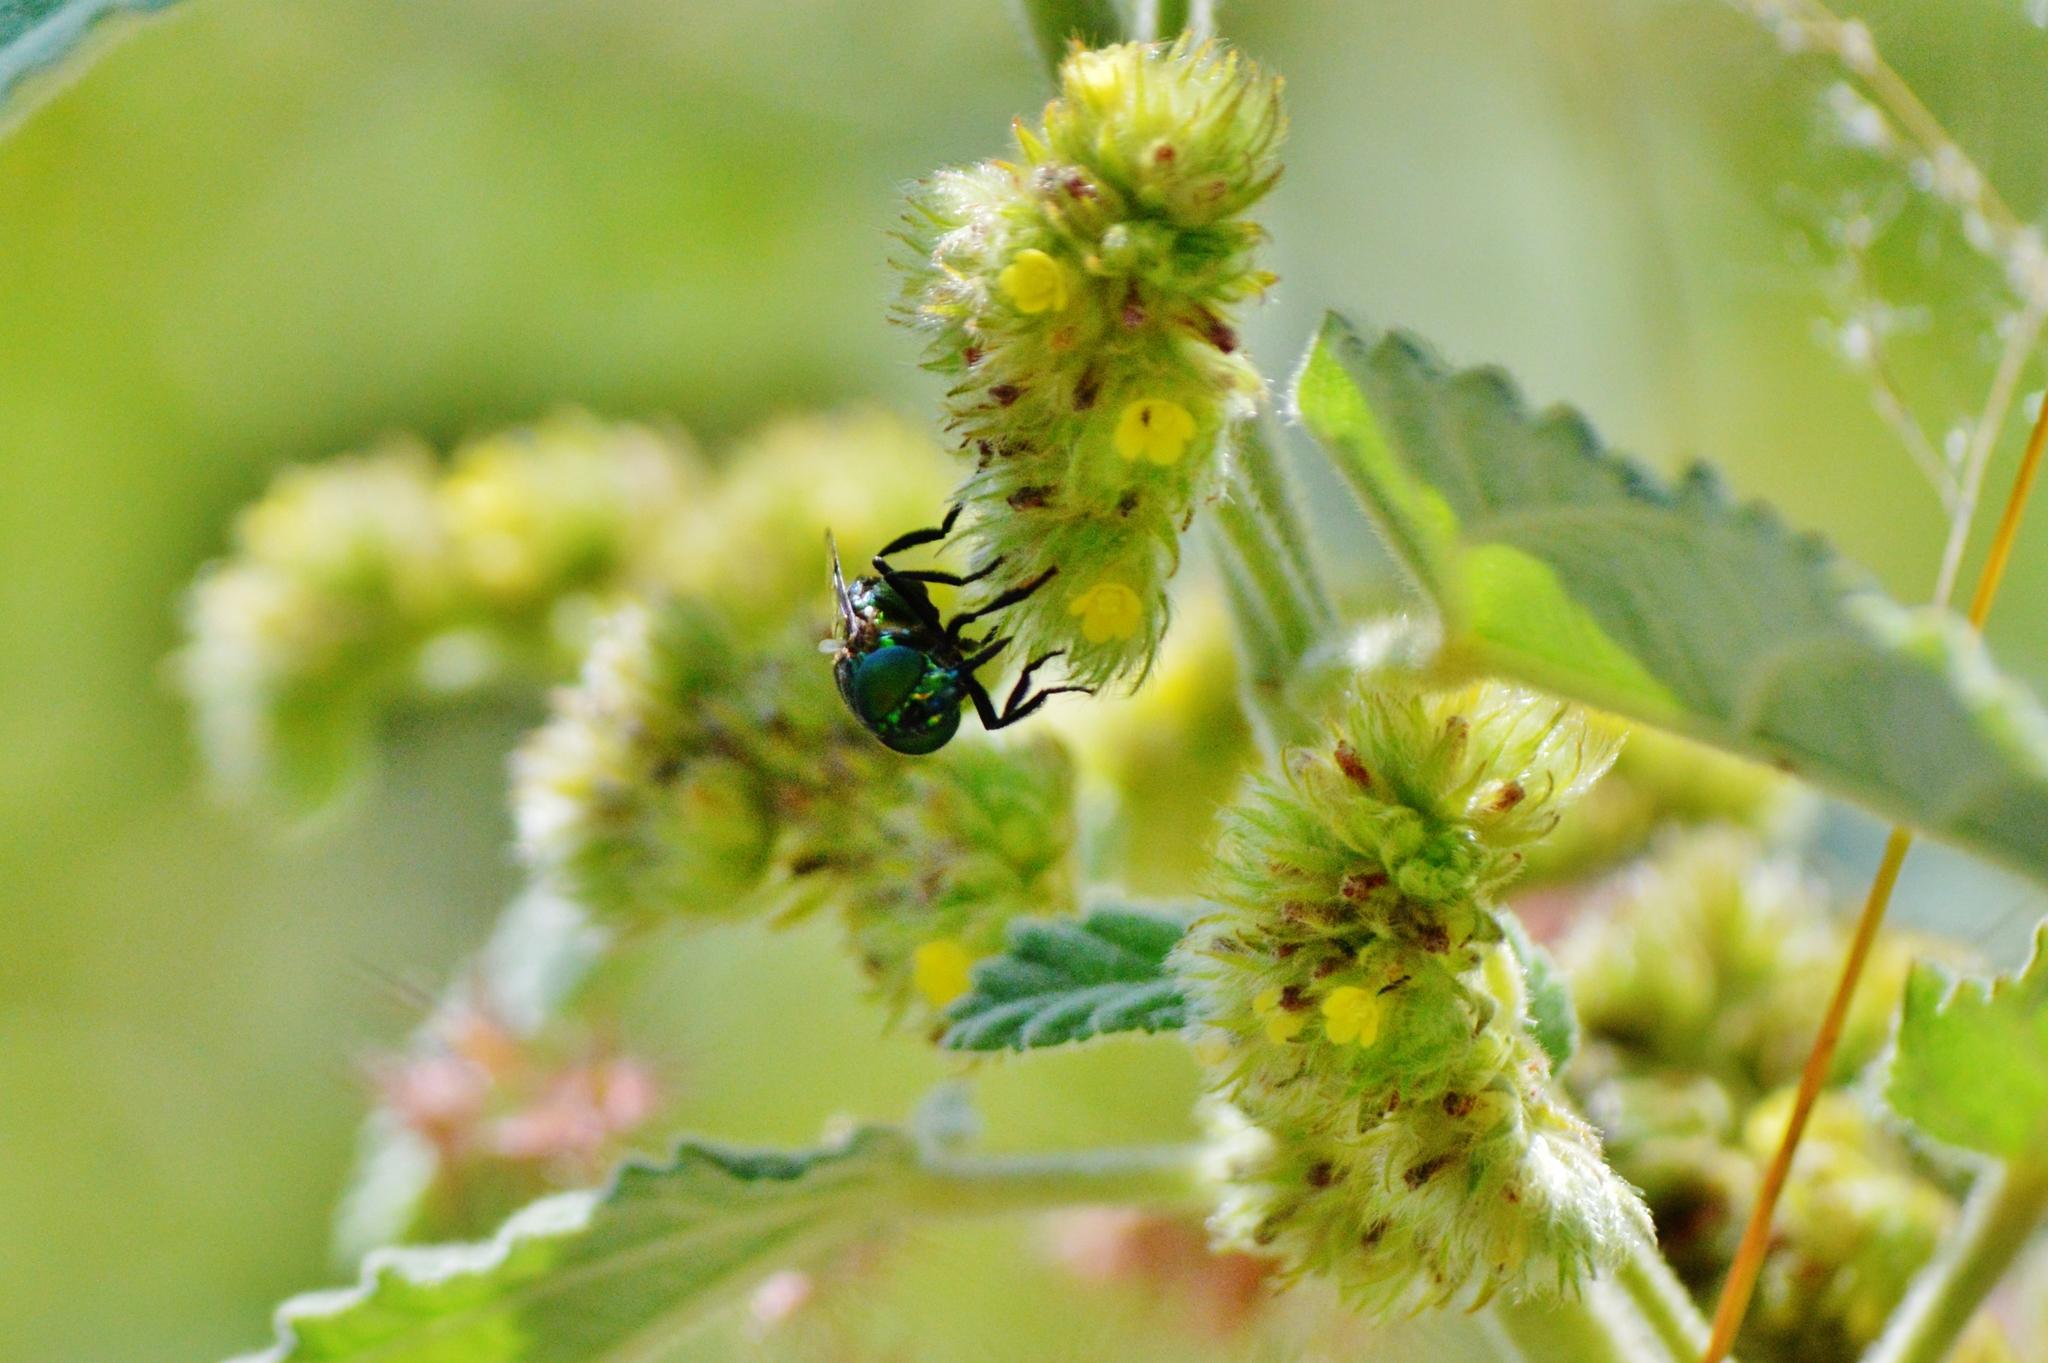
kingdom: Animalia
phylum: Arthropoda
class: Insecta
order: Diptera
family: Syrphidae
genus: Ornidia
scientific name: Ornidia obesa
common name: Syrphid fly
